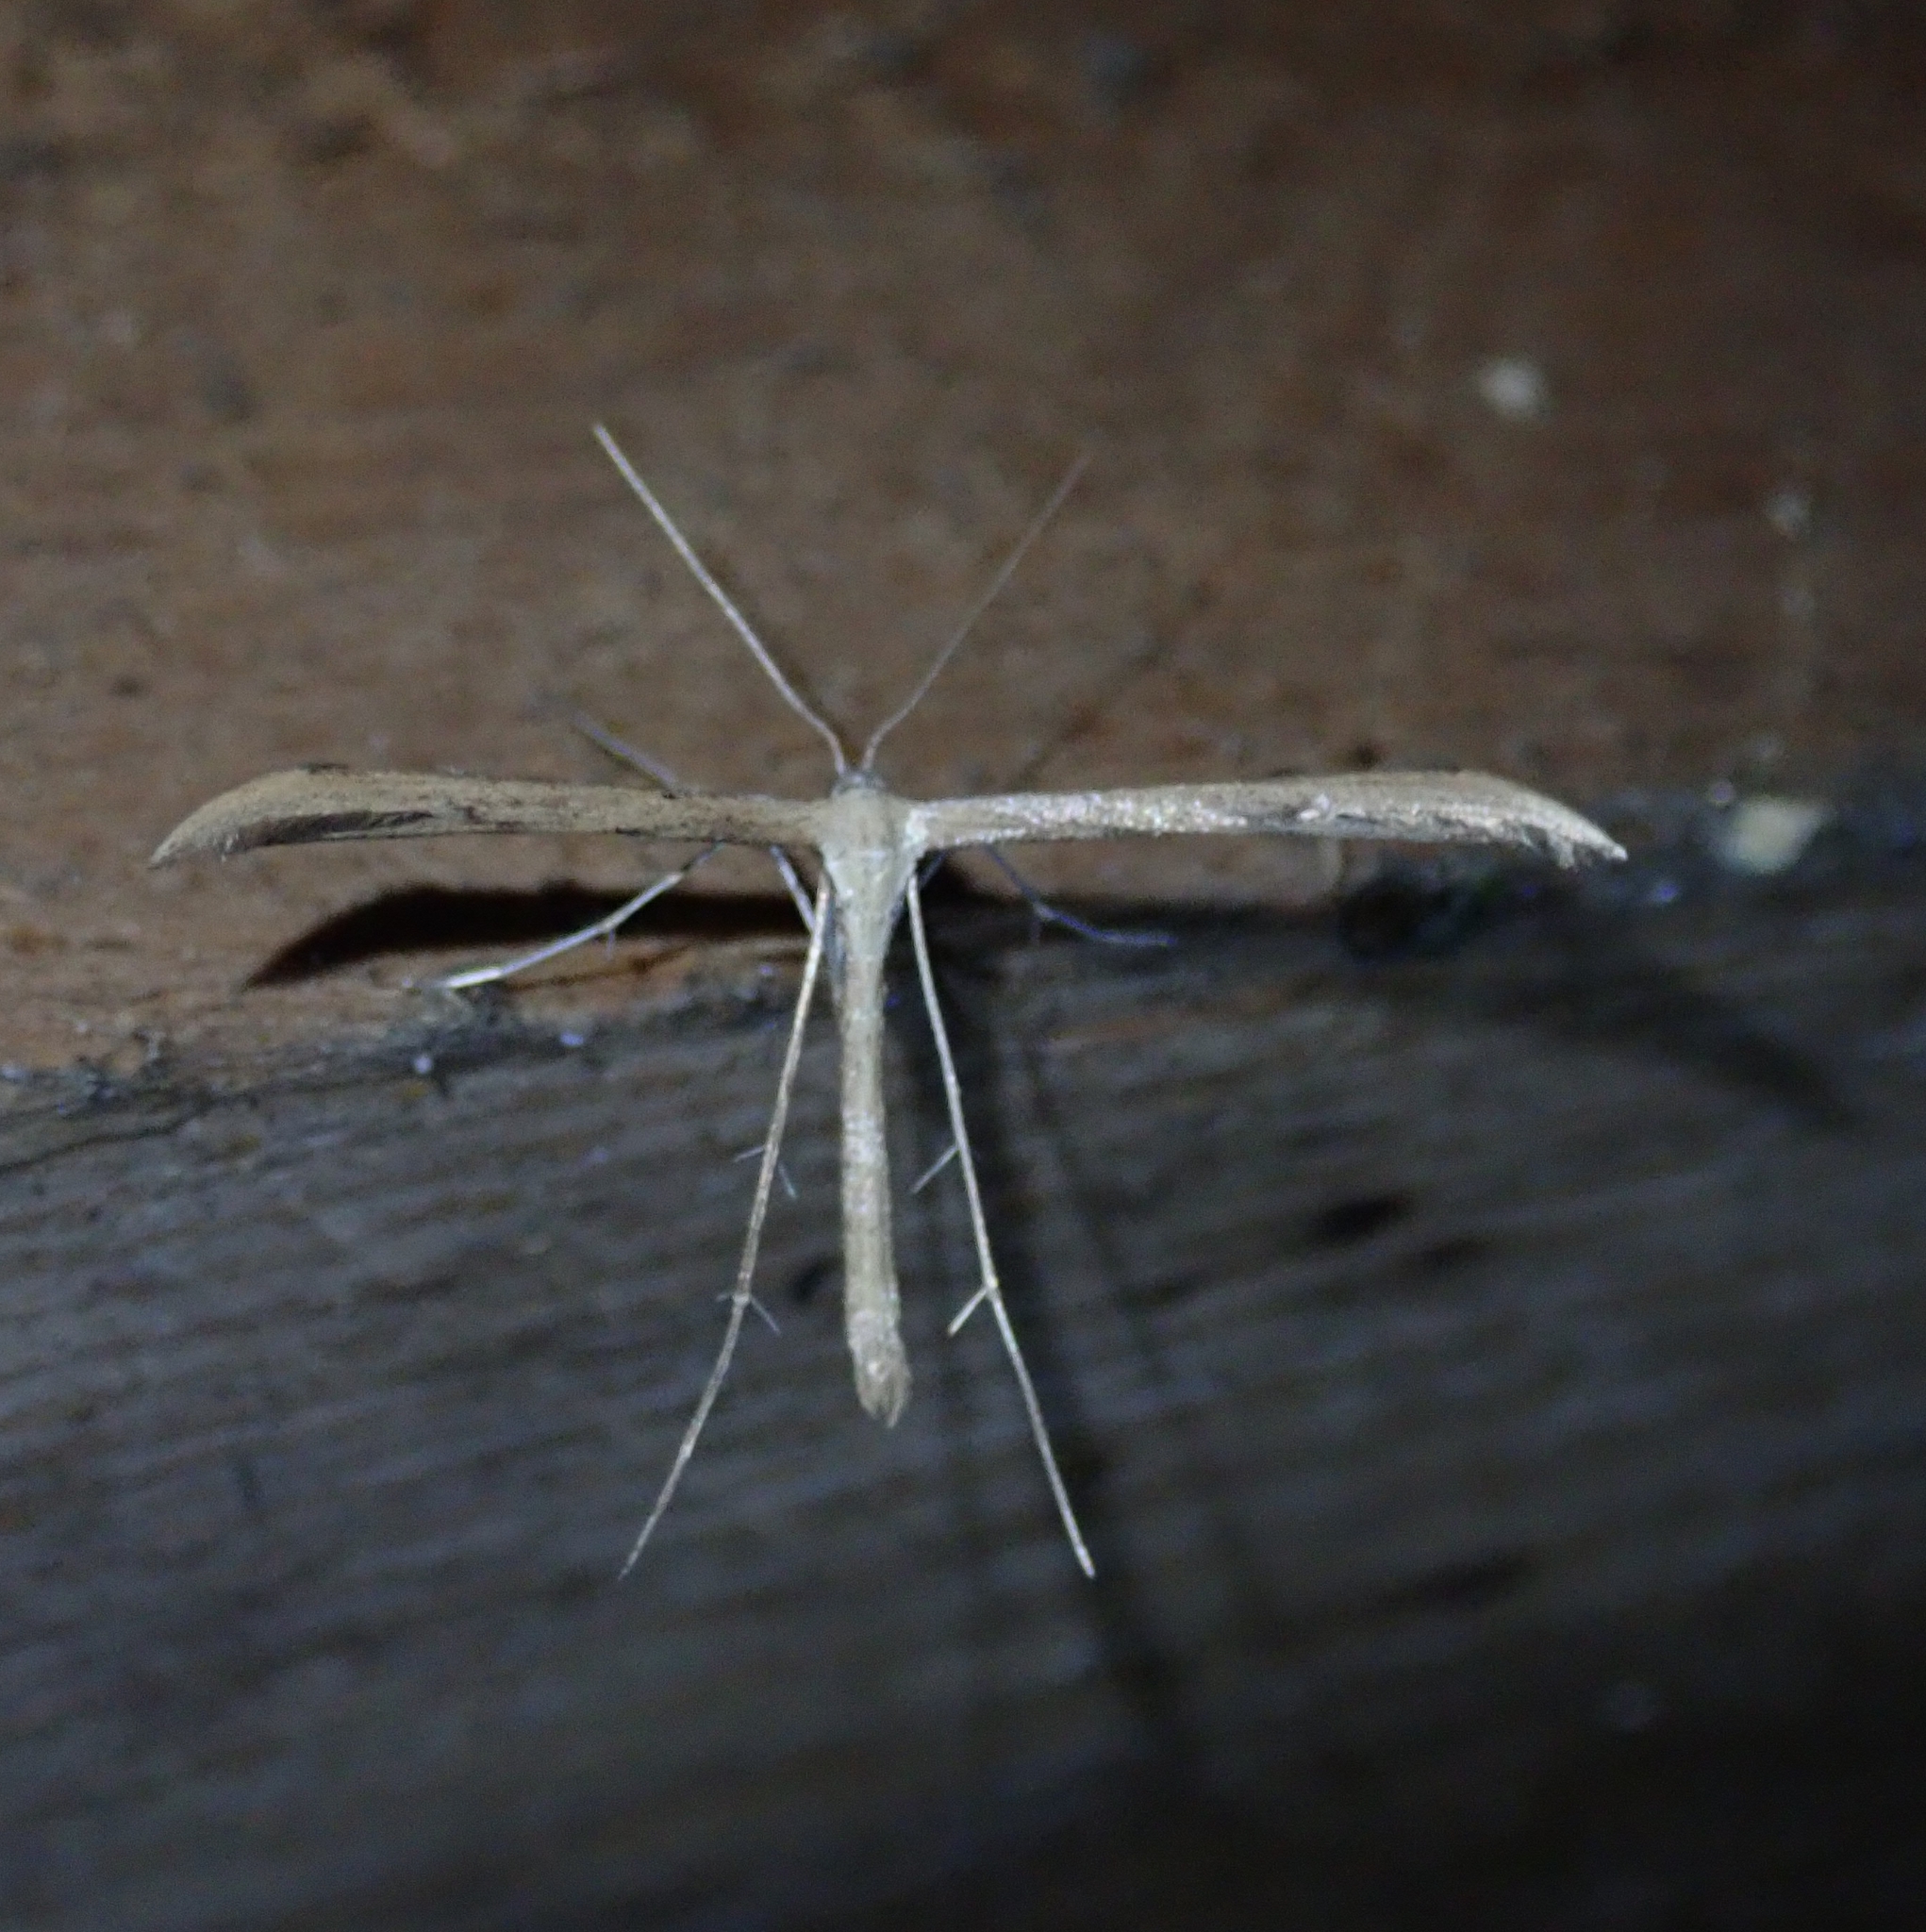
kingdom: Animalia
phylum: Arthropoda
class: Insecta
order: Lepidoptera
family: Pterophoridae
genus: Emmelina
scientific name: Emmelina monodactyla
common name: Common plume
